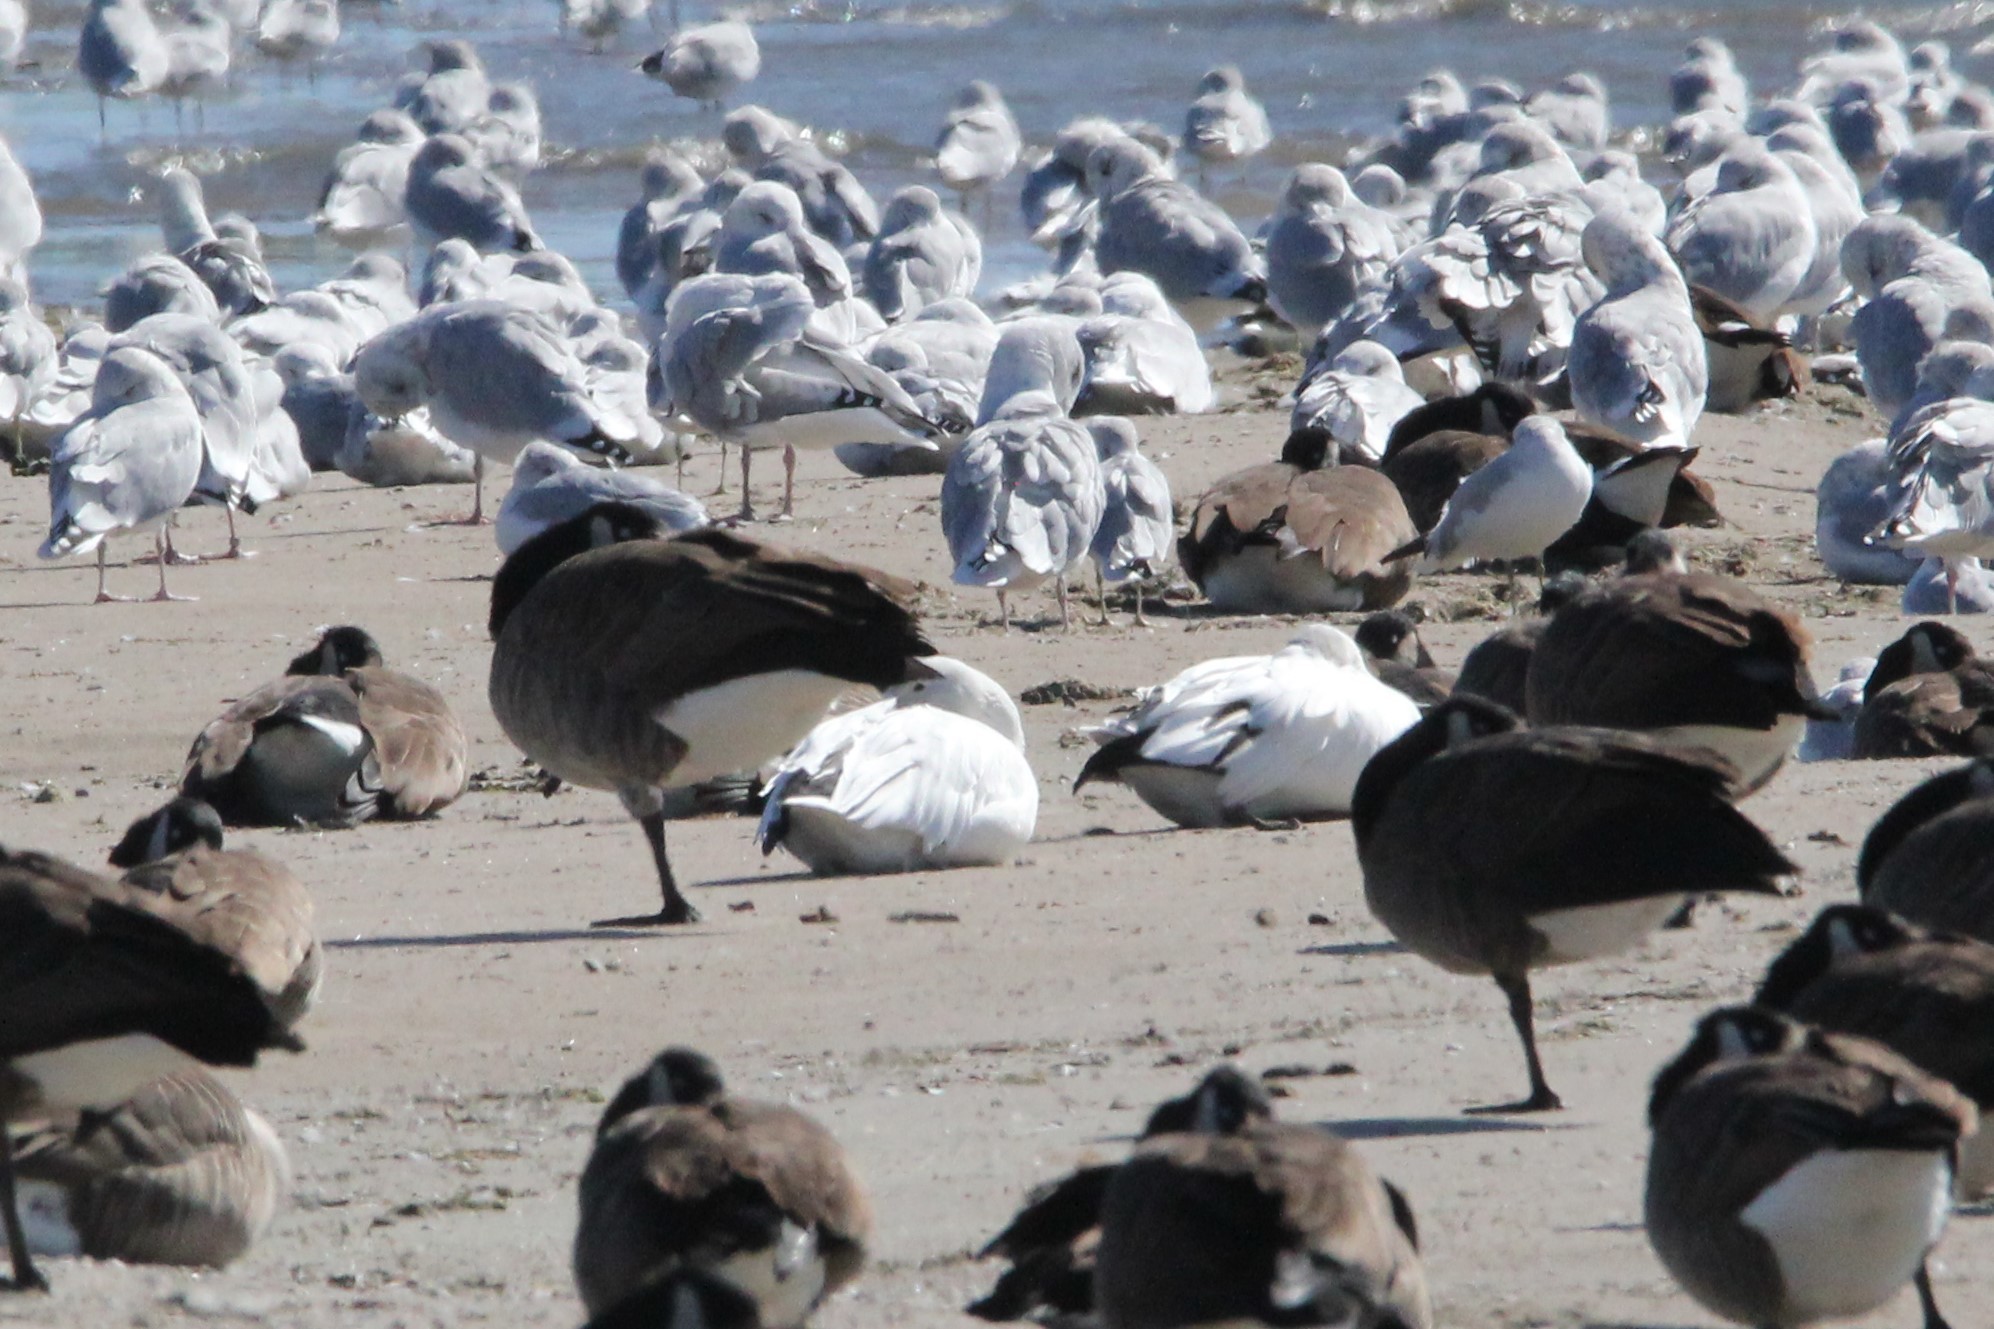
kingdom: Animalia
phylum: Chordata
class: Aves
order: Anseriformes
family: Anatidae
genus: Anser
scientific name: Anser caerulescens
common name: Snow goose
